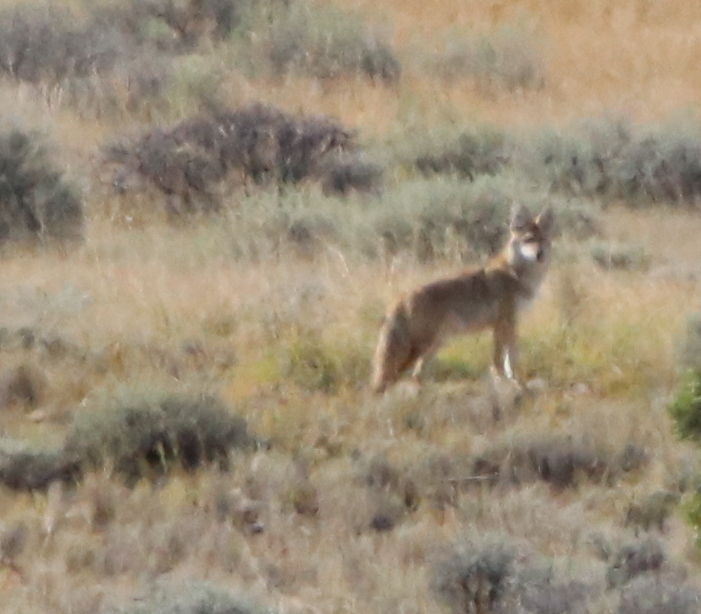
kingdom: Animalia
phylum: Chordata
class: Mammalia
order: Carnivora
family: Canidae
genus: Canis
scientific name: Canis latrans
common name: Coyote
